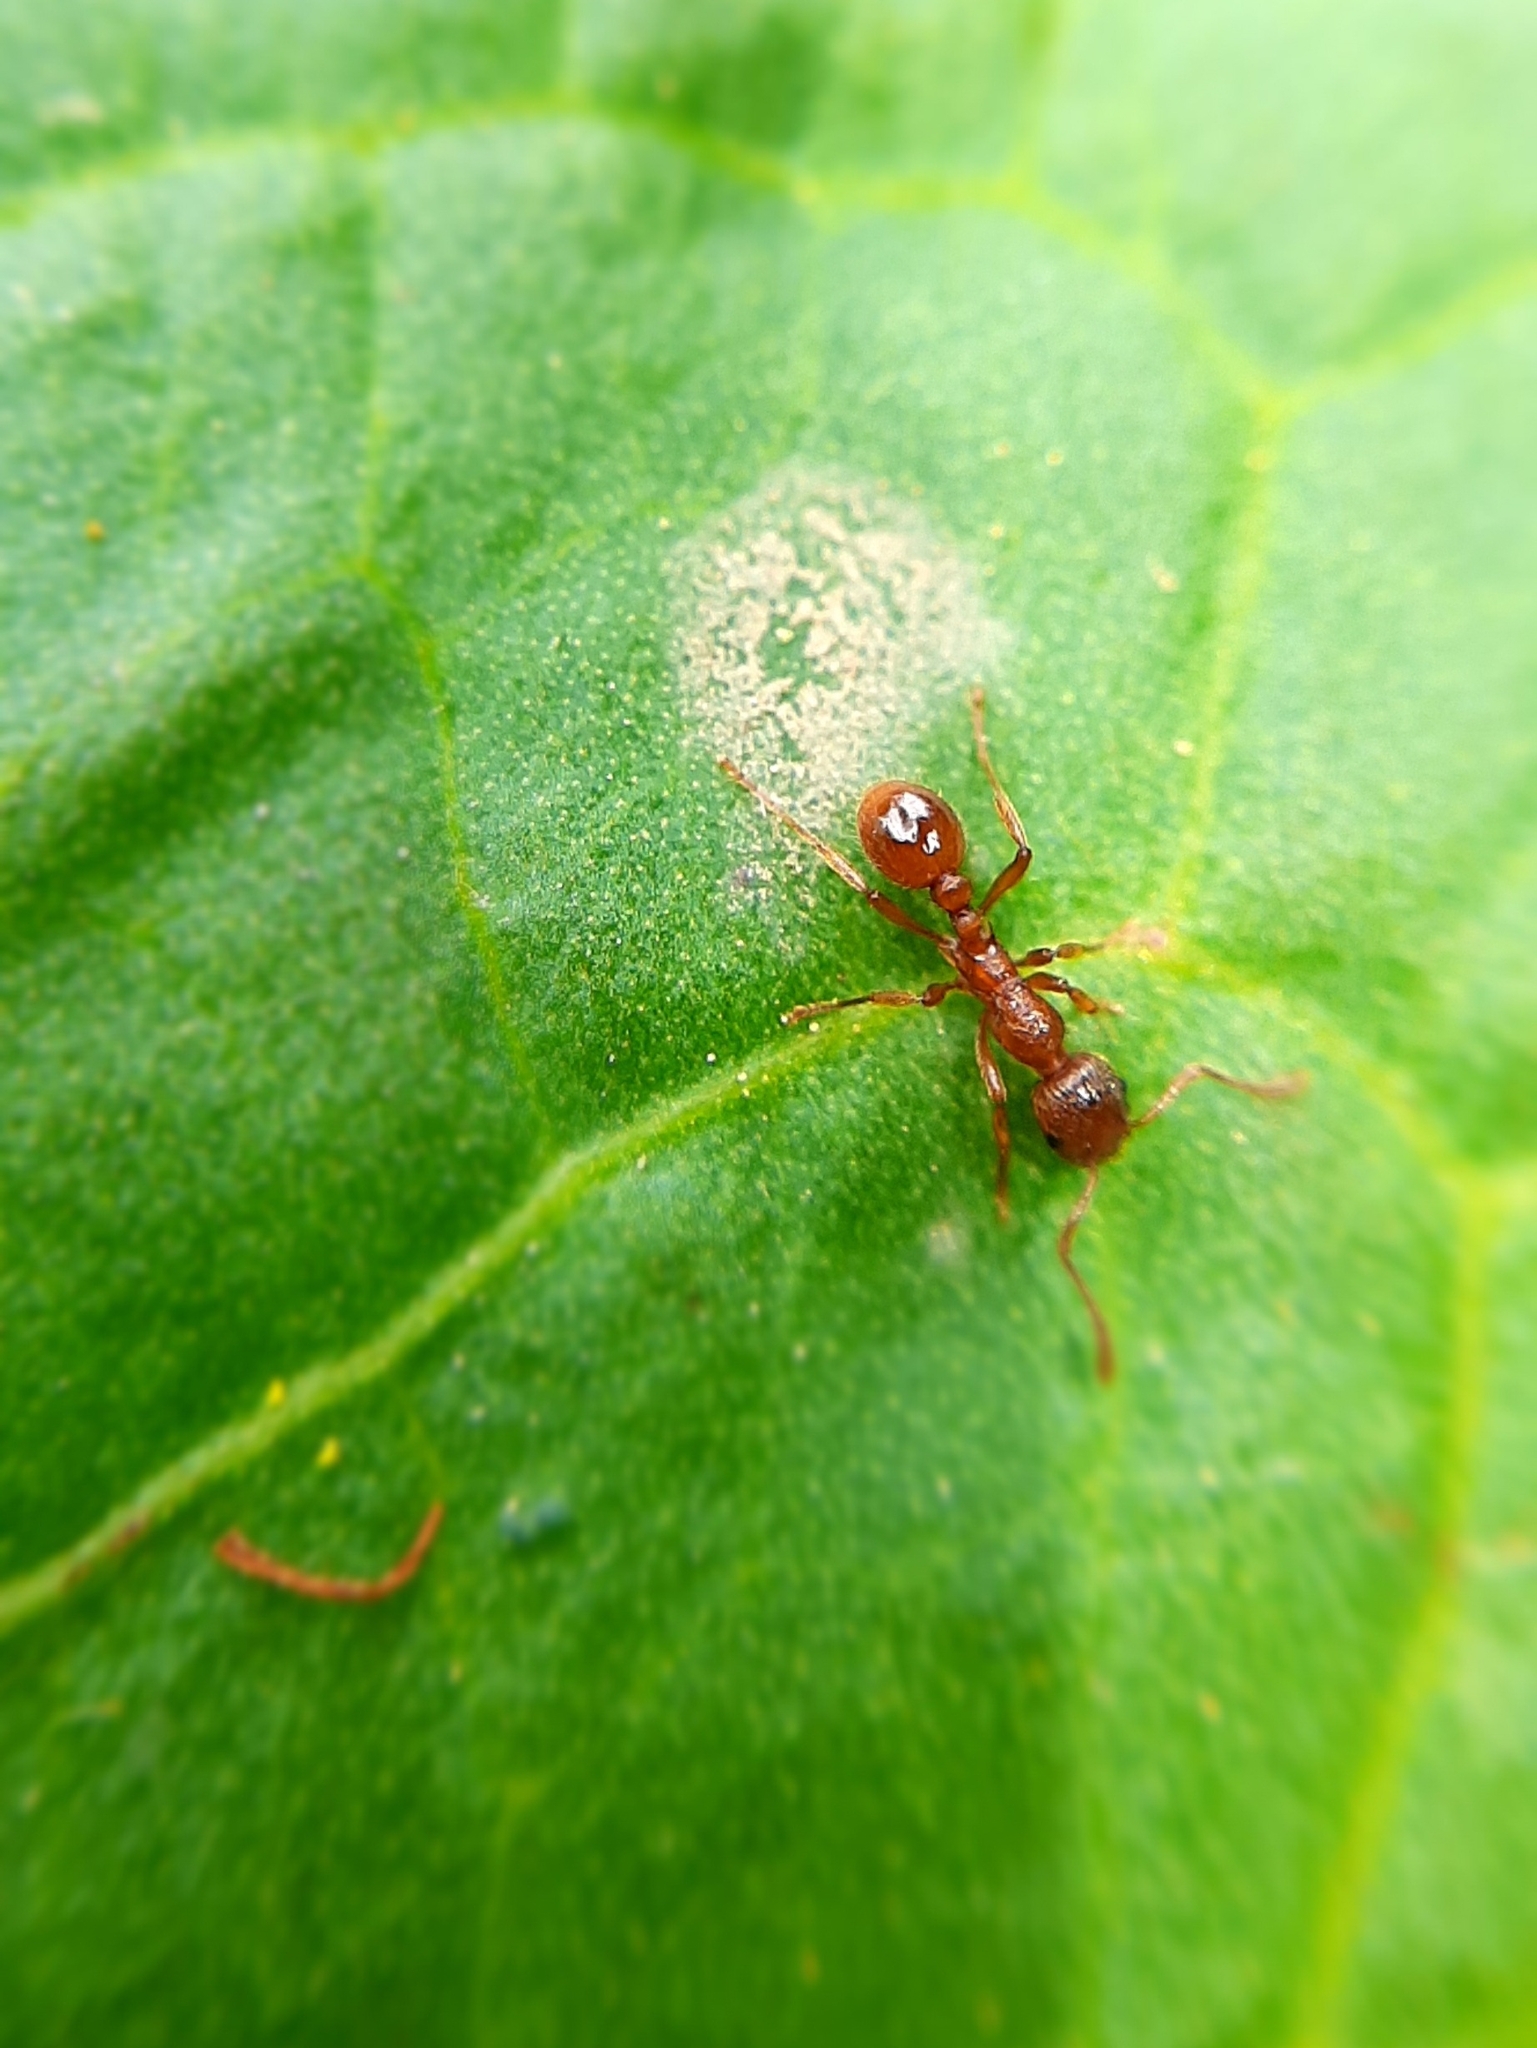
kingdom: Animalia
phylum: Arthropoda
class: Insecta
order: Hymenoptera
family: Formicidae
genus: Myrmica
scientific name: Myrmica
